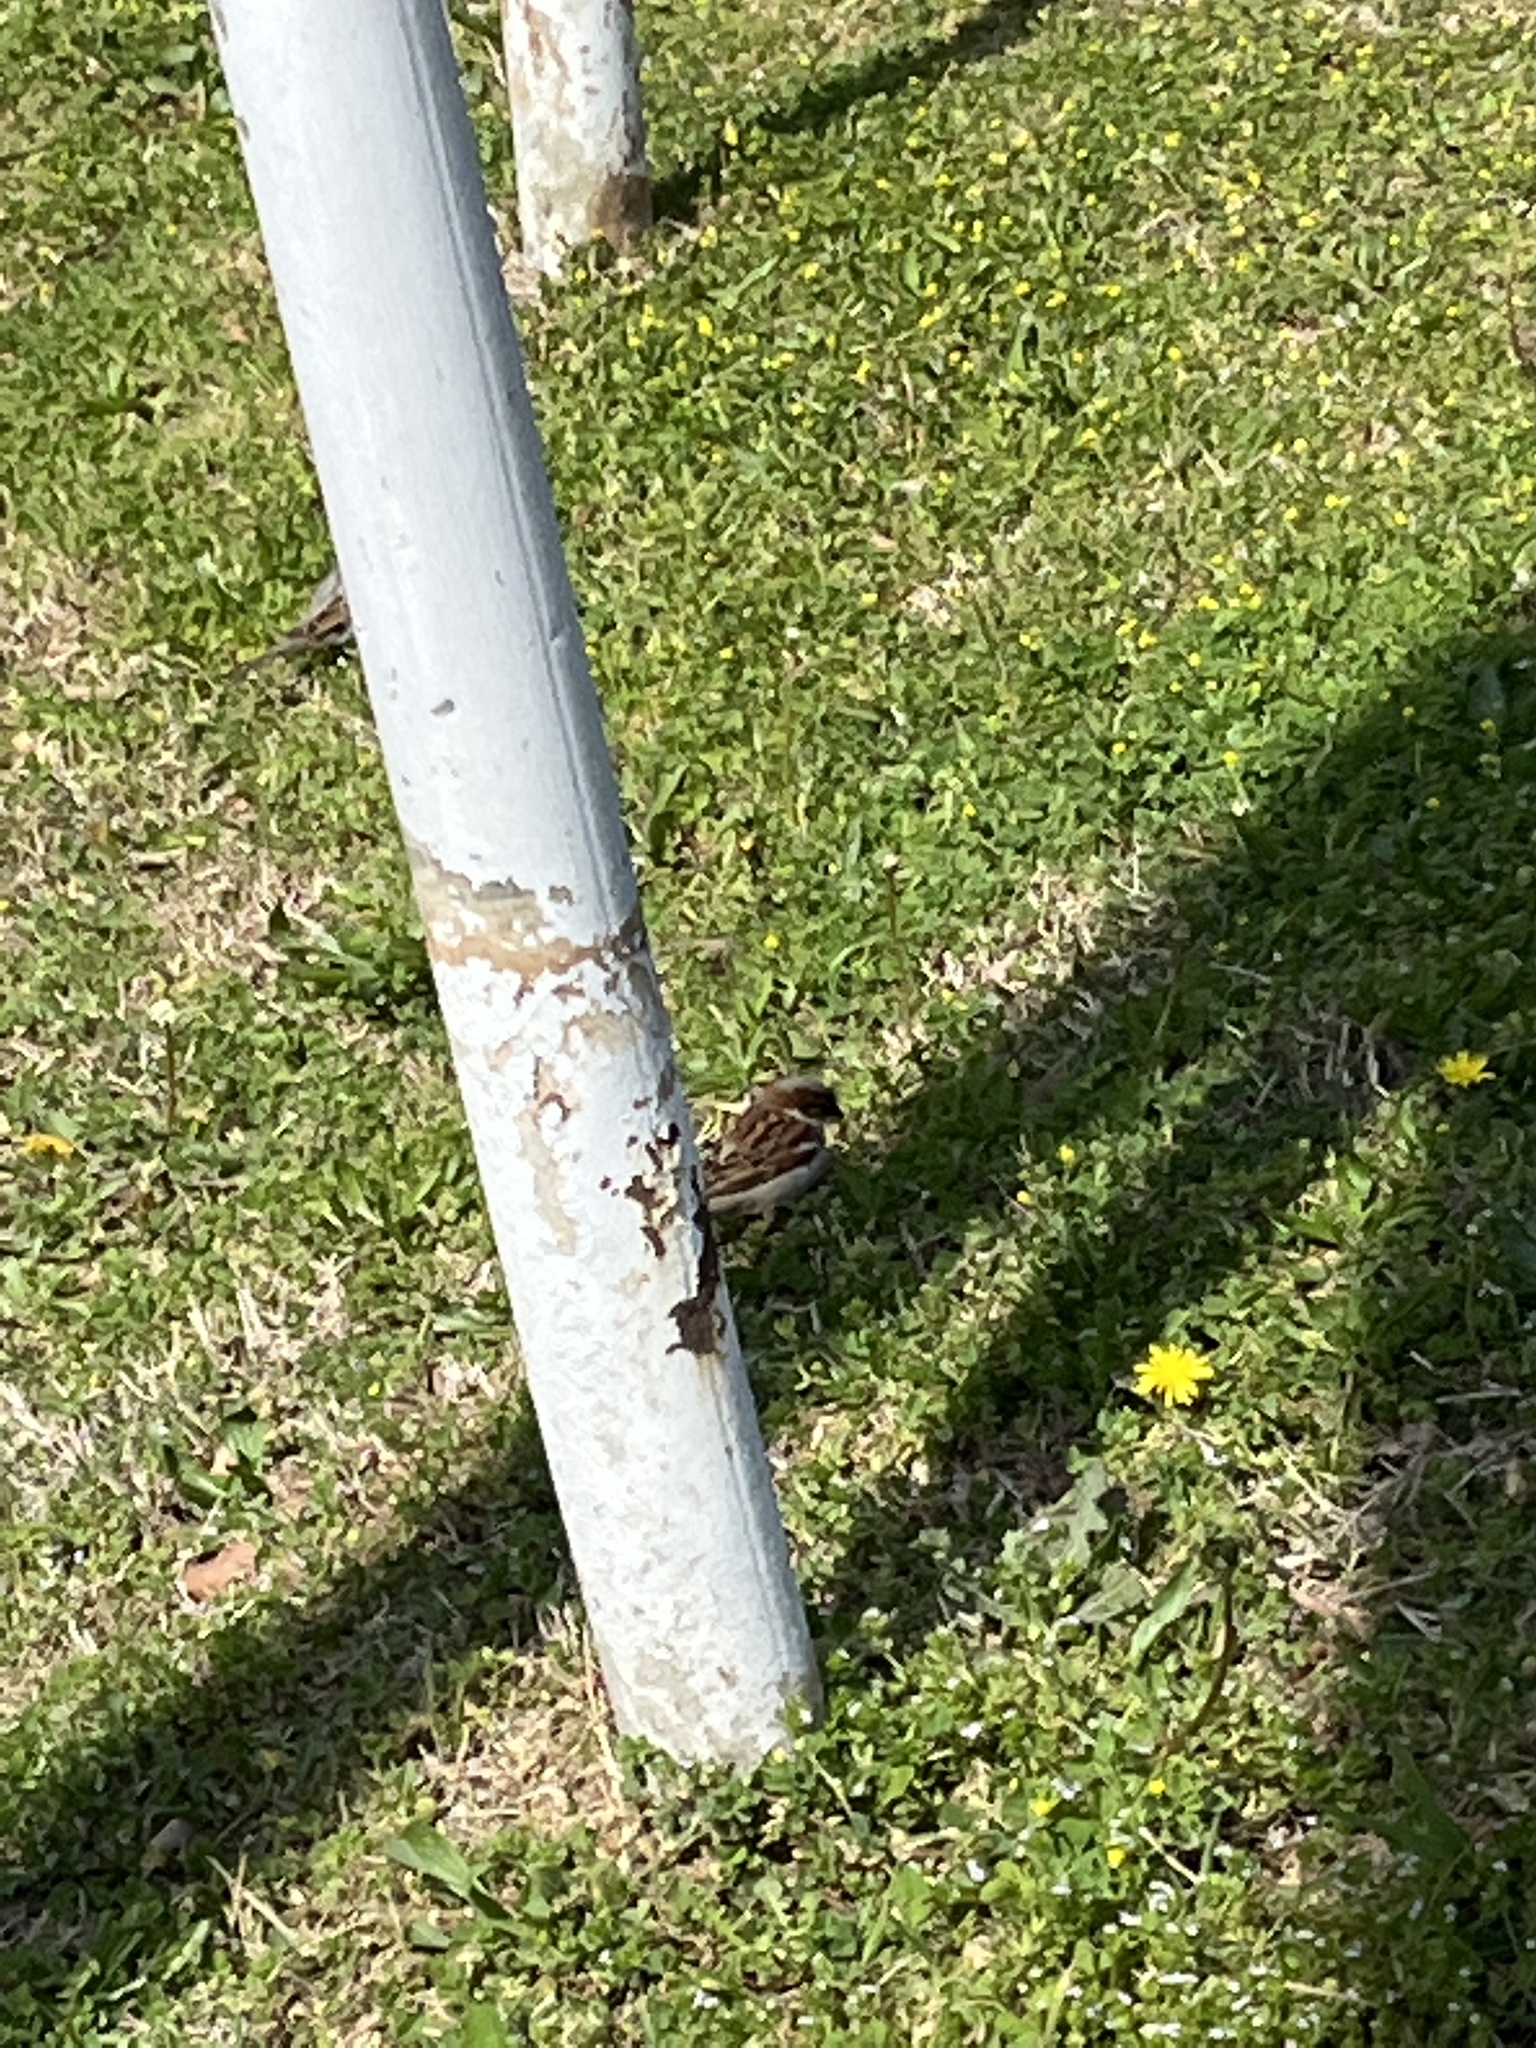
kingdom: Animalia
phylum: Chordata
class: Aves
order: Passeriformes
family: Passeridae
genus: Passer
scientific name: Passer domesticus
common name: House sparrow
